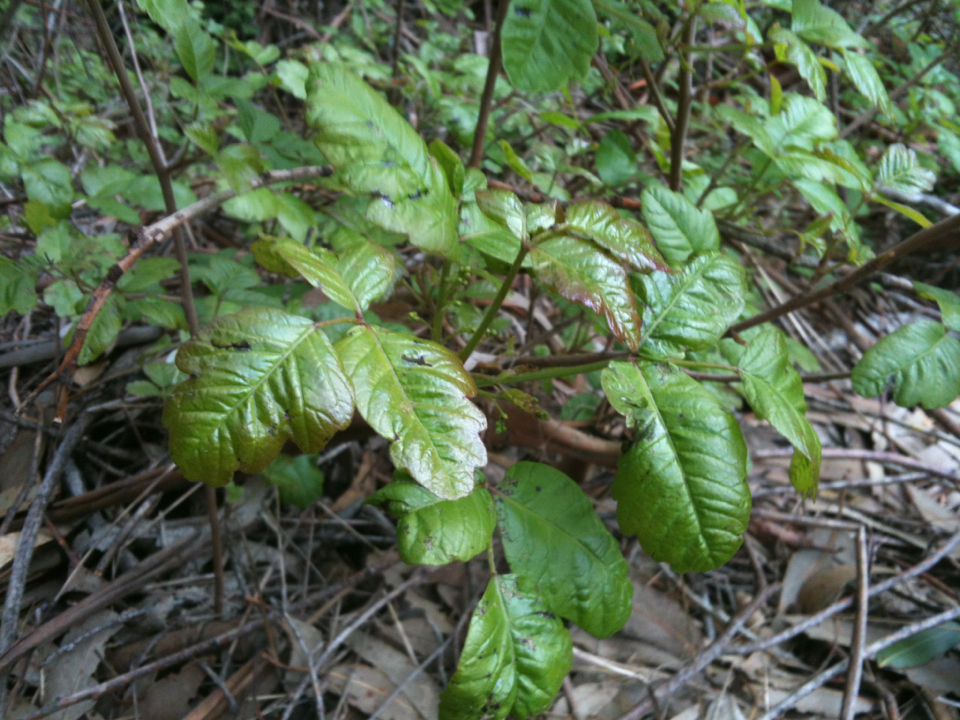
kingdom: Plantae
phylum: Tracheophyta
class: Magnoliopsida
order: Sapindales
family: Anacardiaceae
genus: Toxicodendron
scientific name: Toxicodendron diversilobum
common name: Pacific poison-oak
